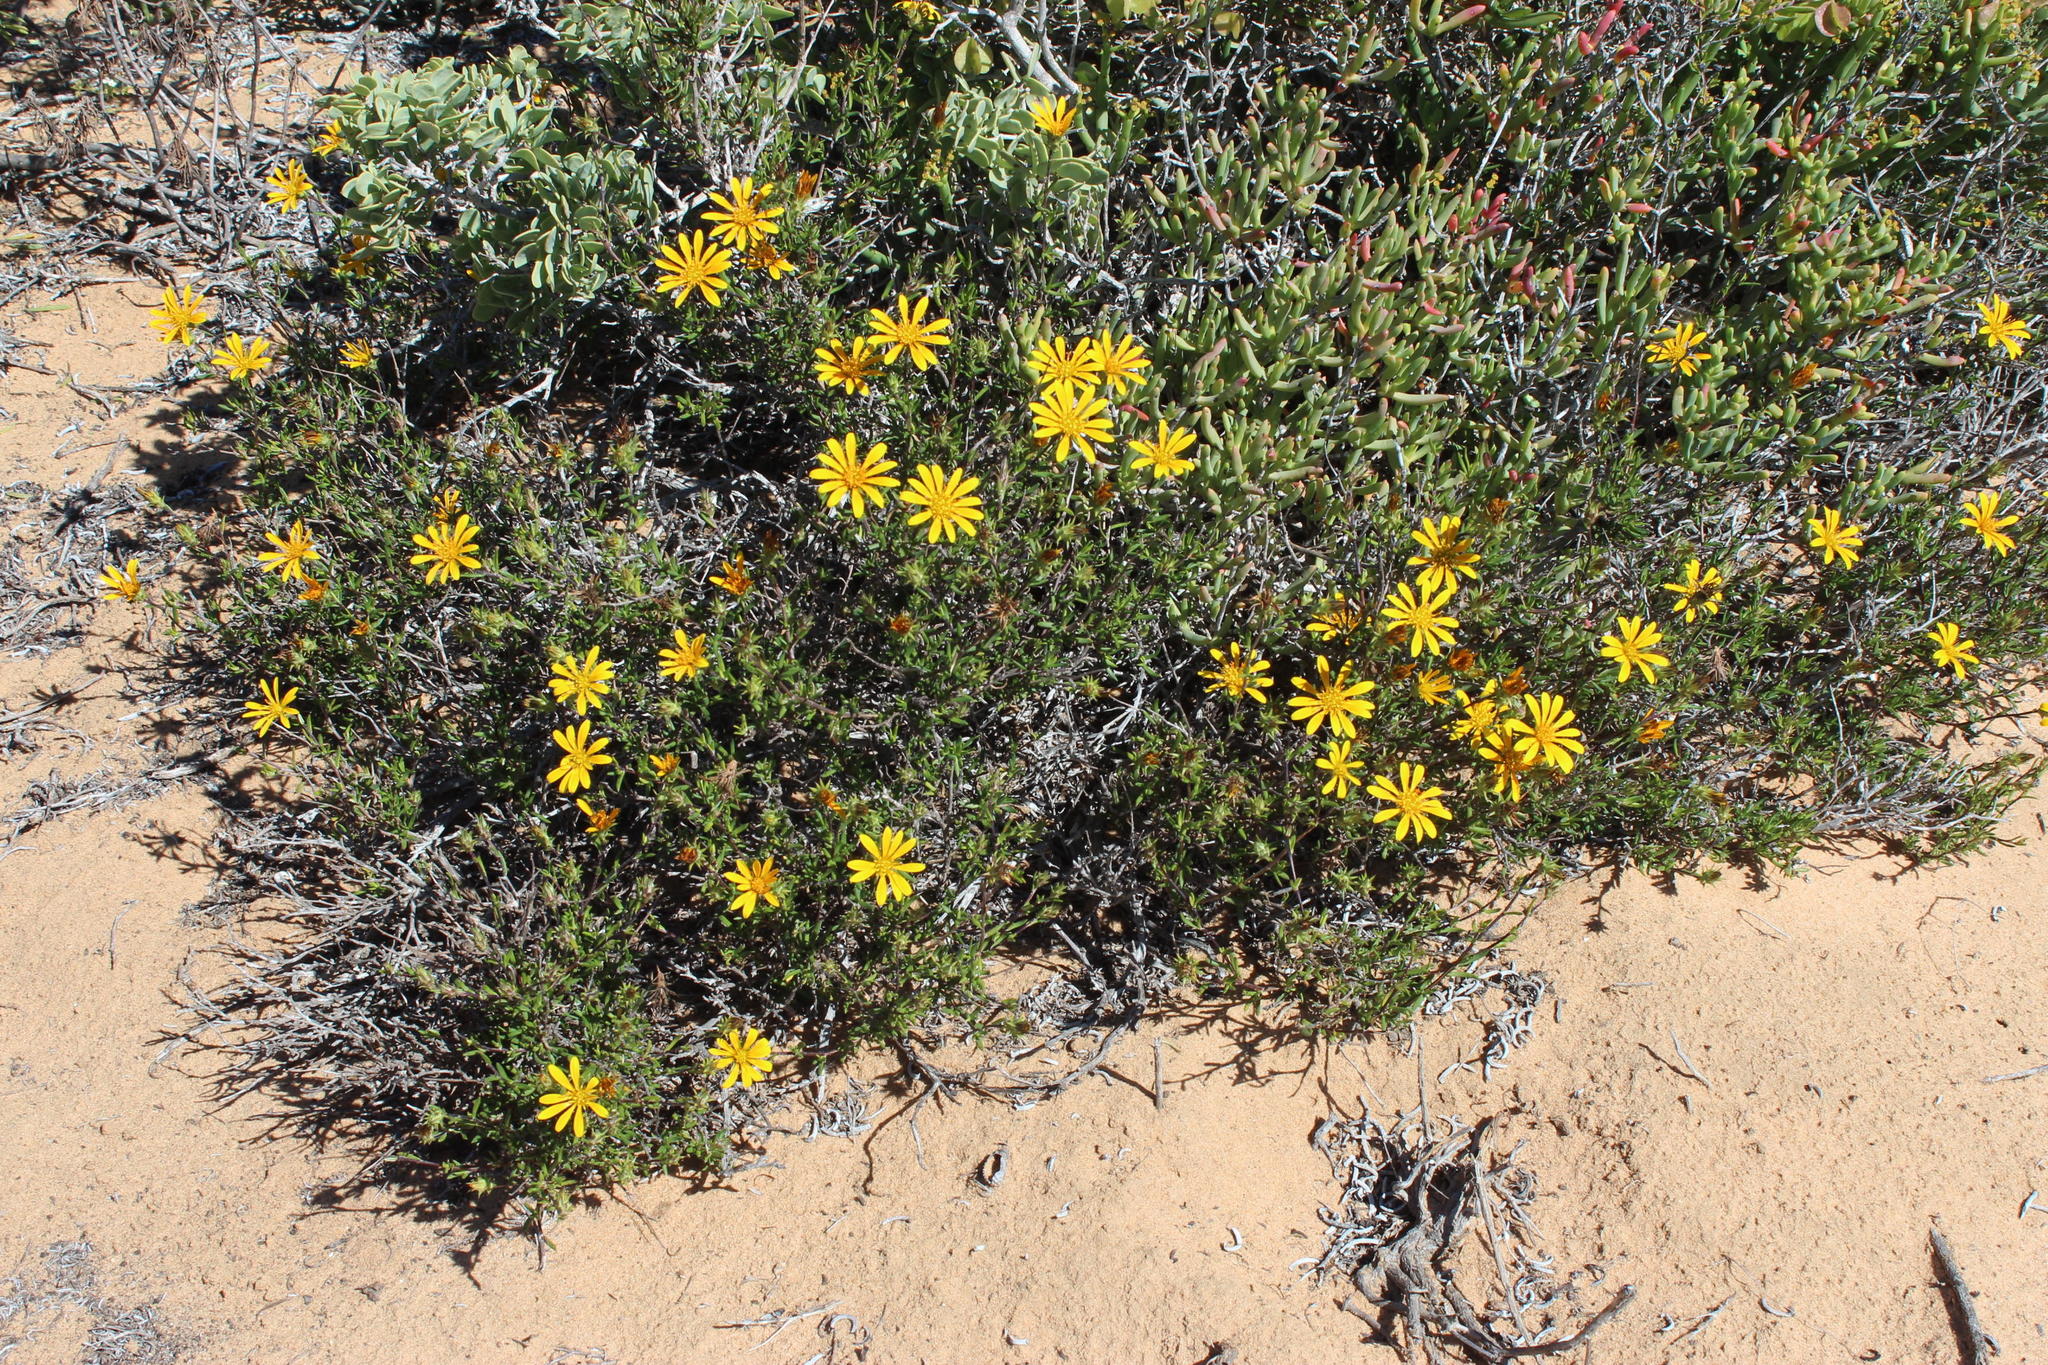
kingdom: Plantae
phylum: Tracheophyta
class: Magnoliopsida
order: Asterales
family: Asteraceae
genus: Gorteria
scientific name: Gorteria alienata
